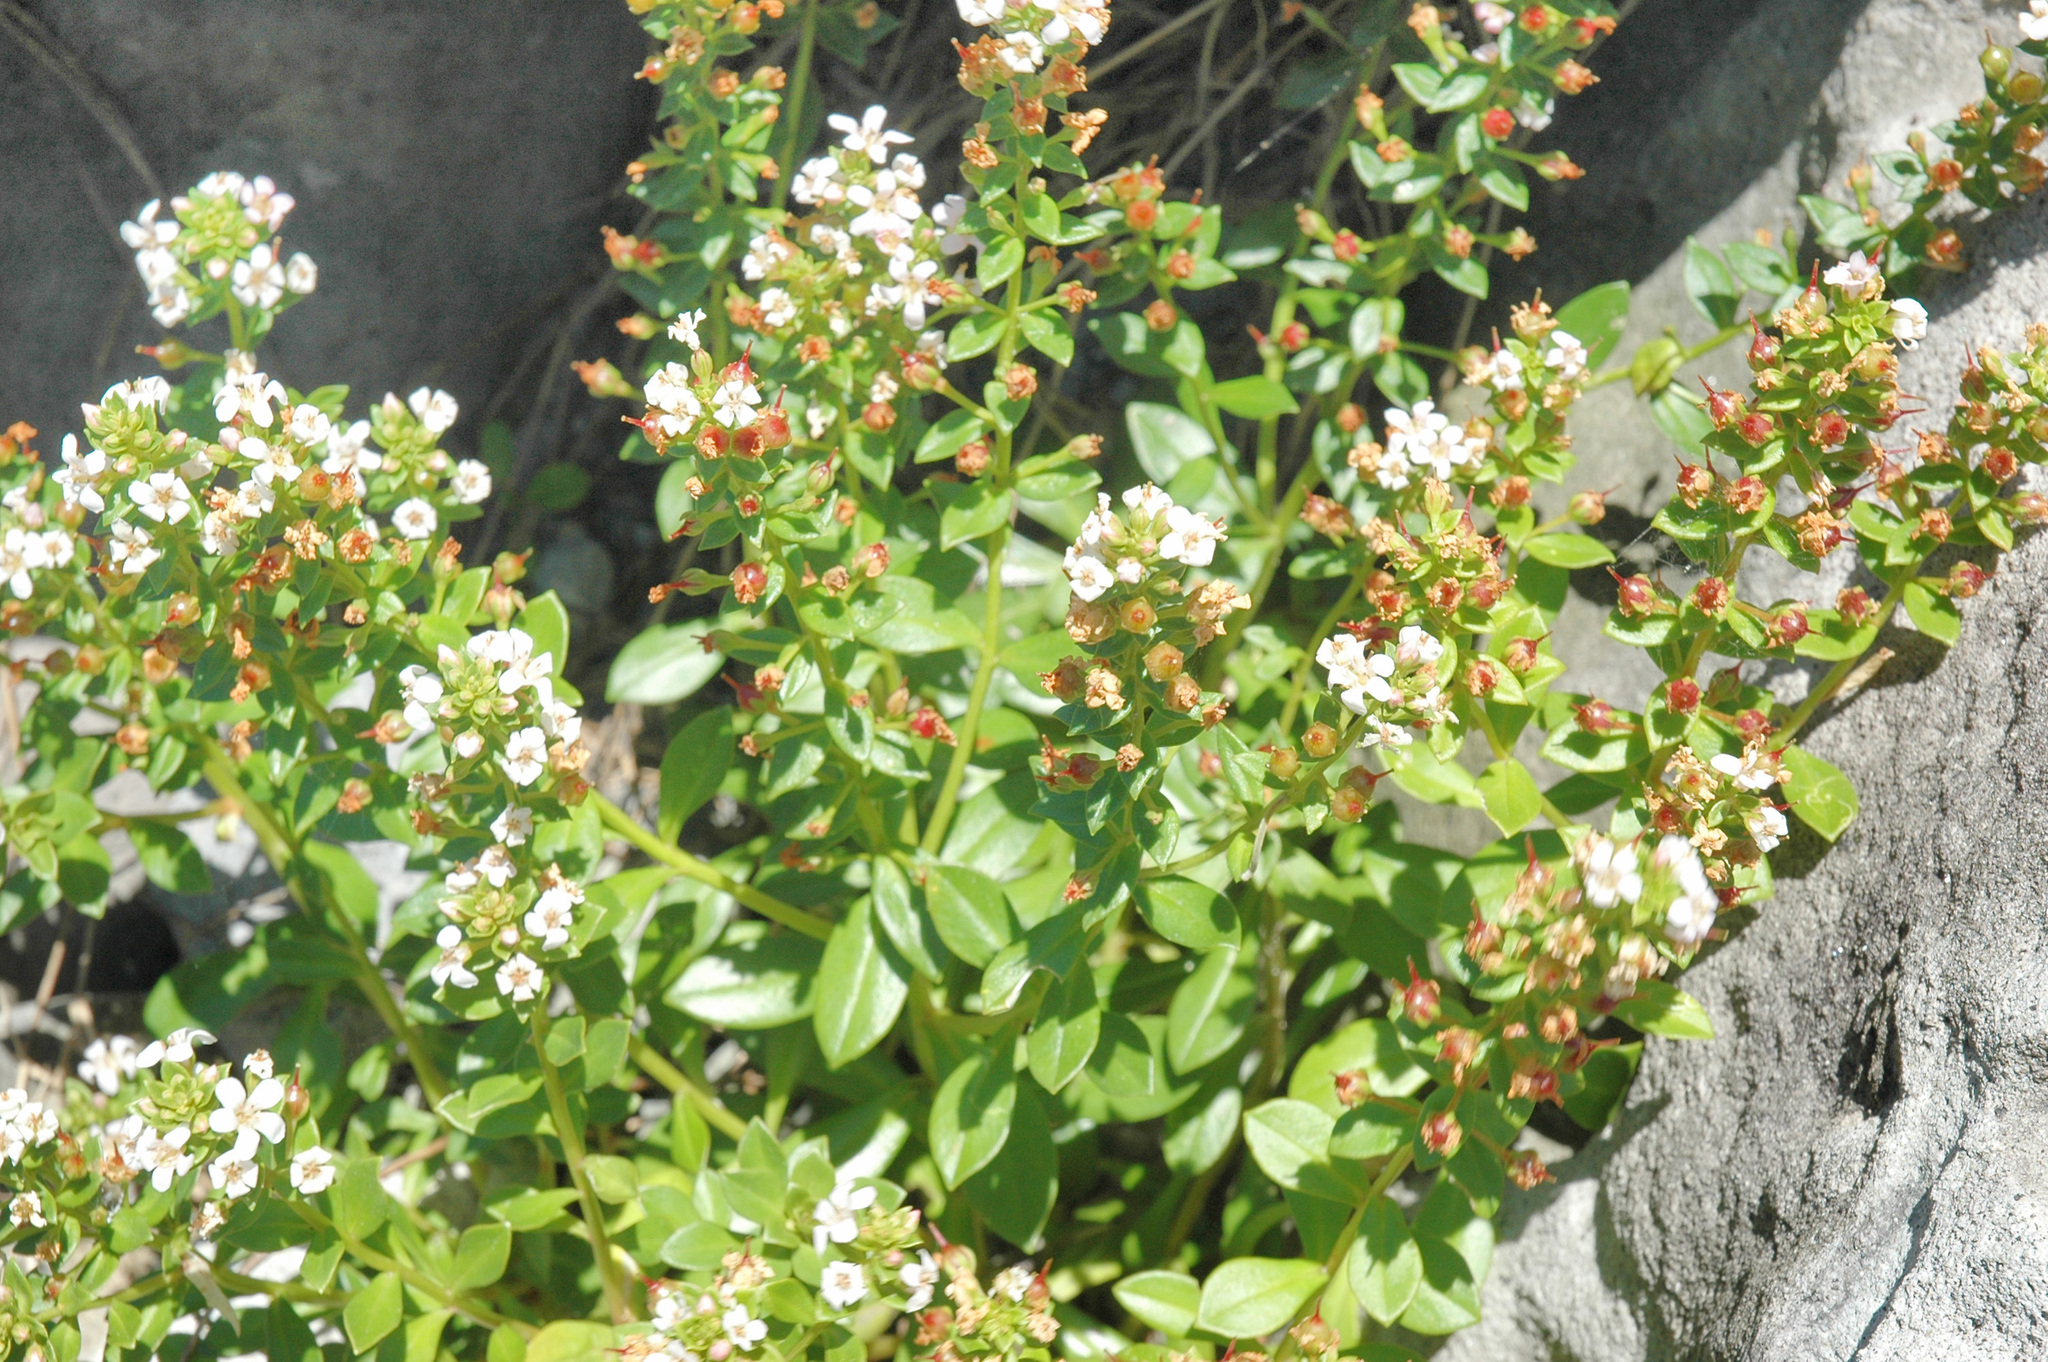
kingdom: Plantae
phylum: Tracheophyta
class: Magnoliopsida
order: Ericales
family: Primulaceae
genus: Lysimachia
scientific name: Lysimachia mauritiana
